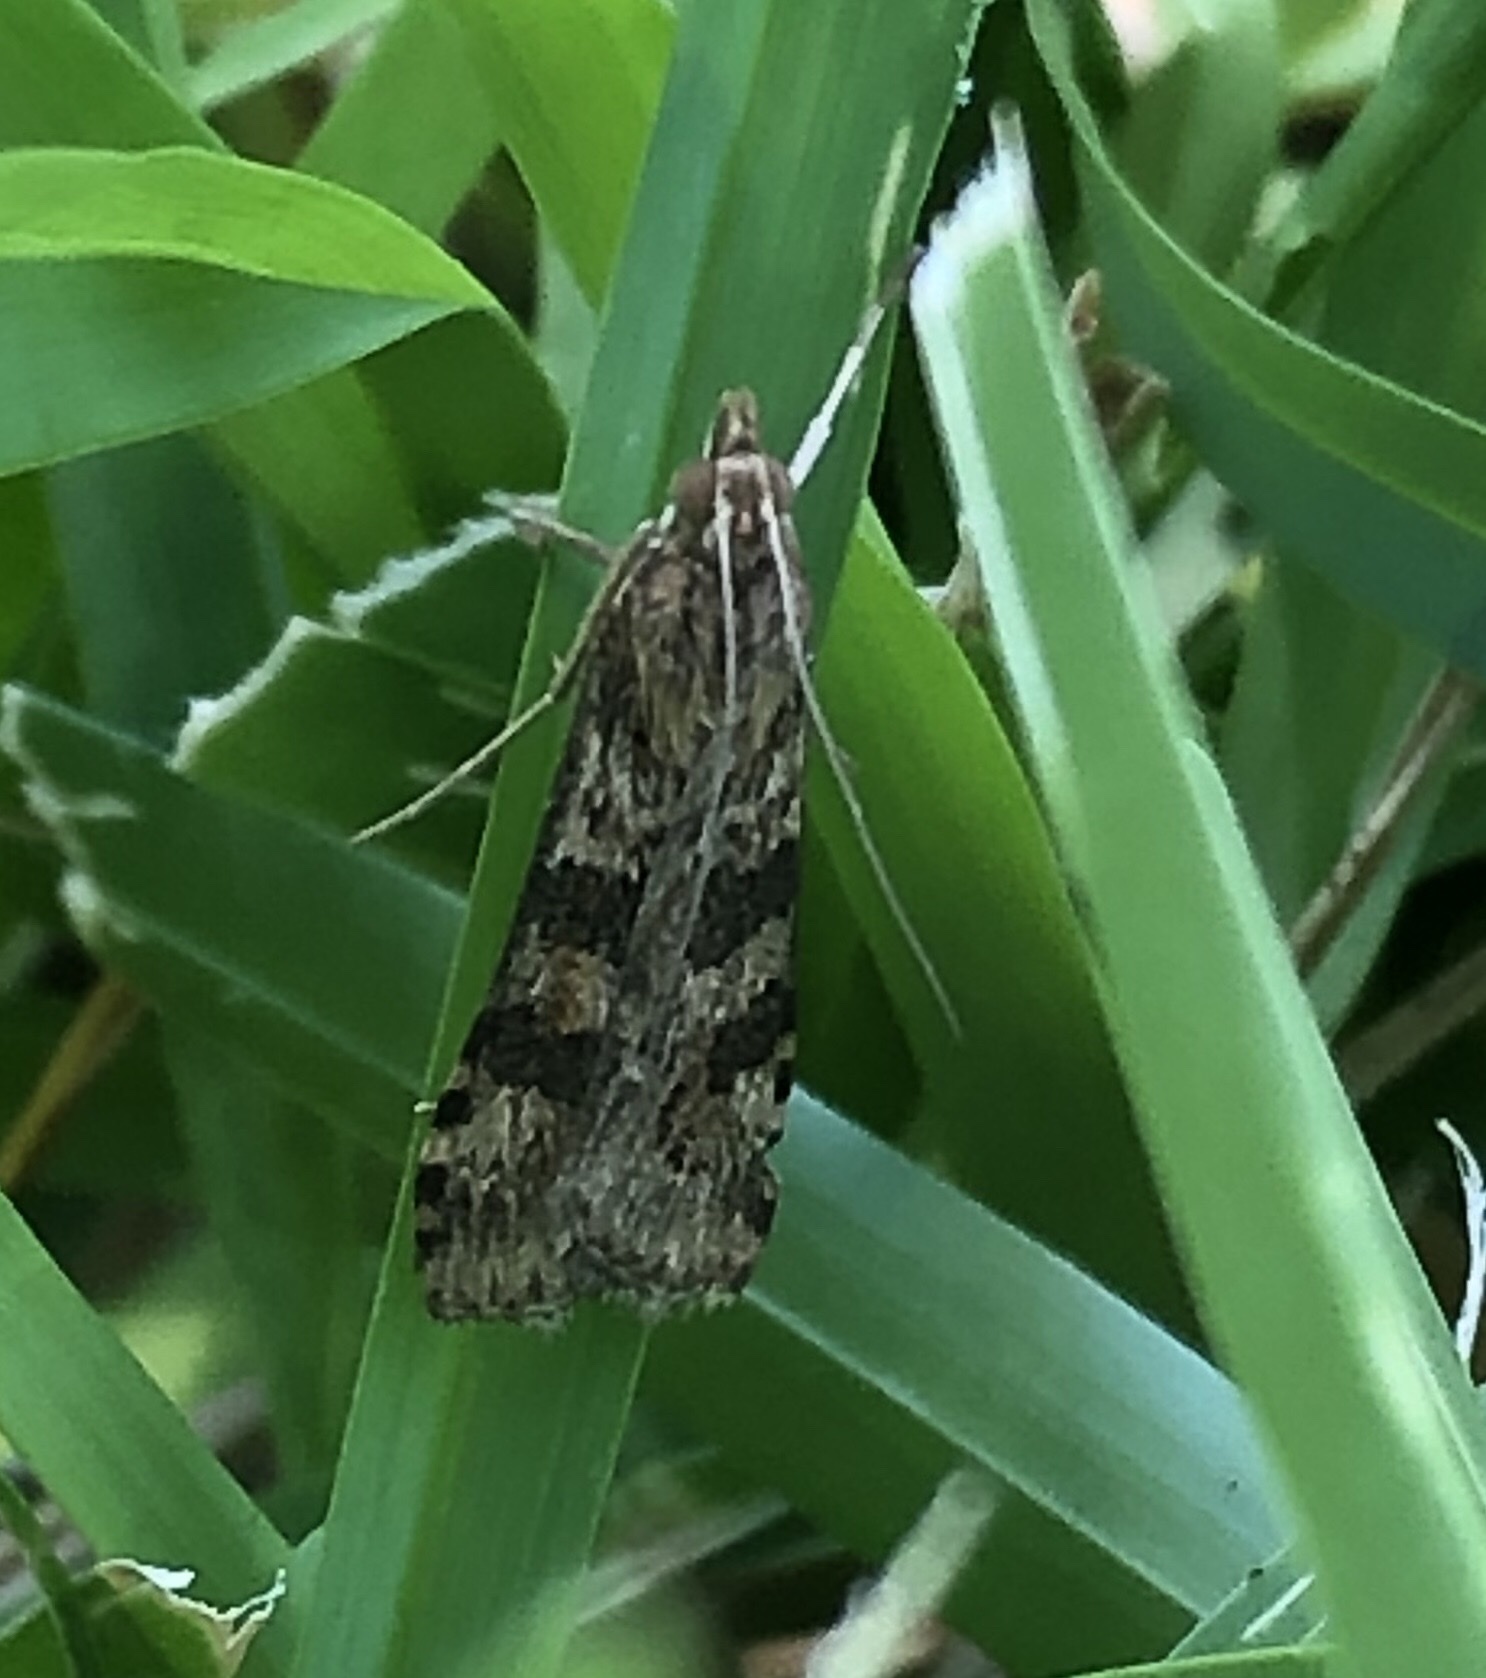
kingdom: Animalia
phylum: Arthropoda
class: Insecta
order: Lepidoptera
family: Crambidae
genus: Nomophila
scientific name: Nomophila nearctica
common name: American rush veneer
